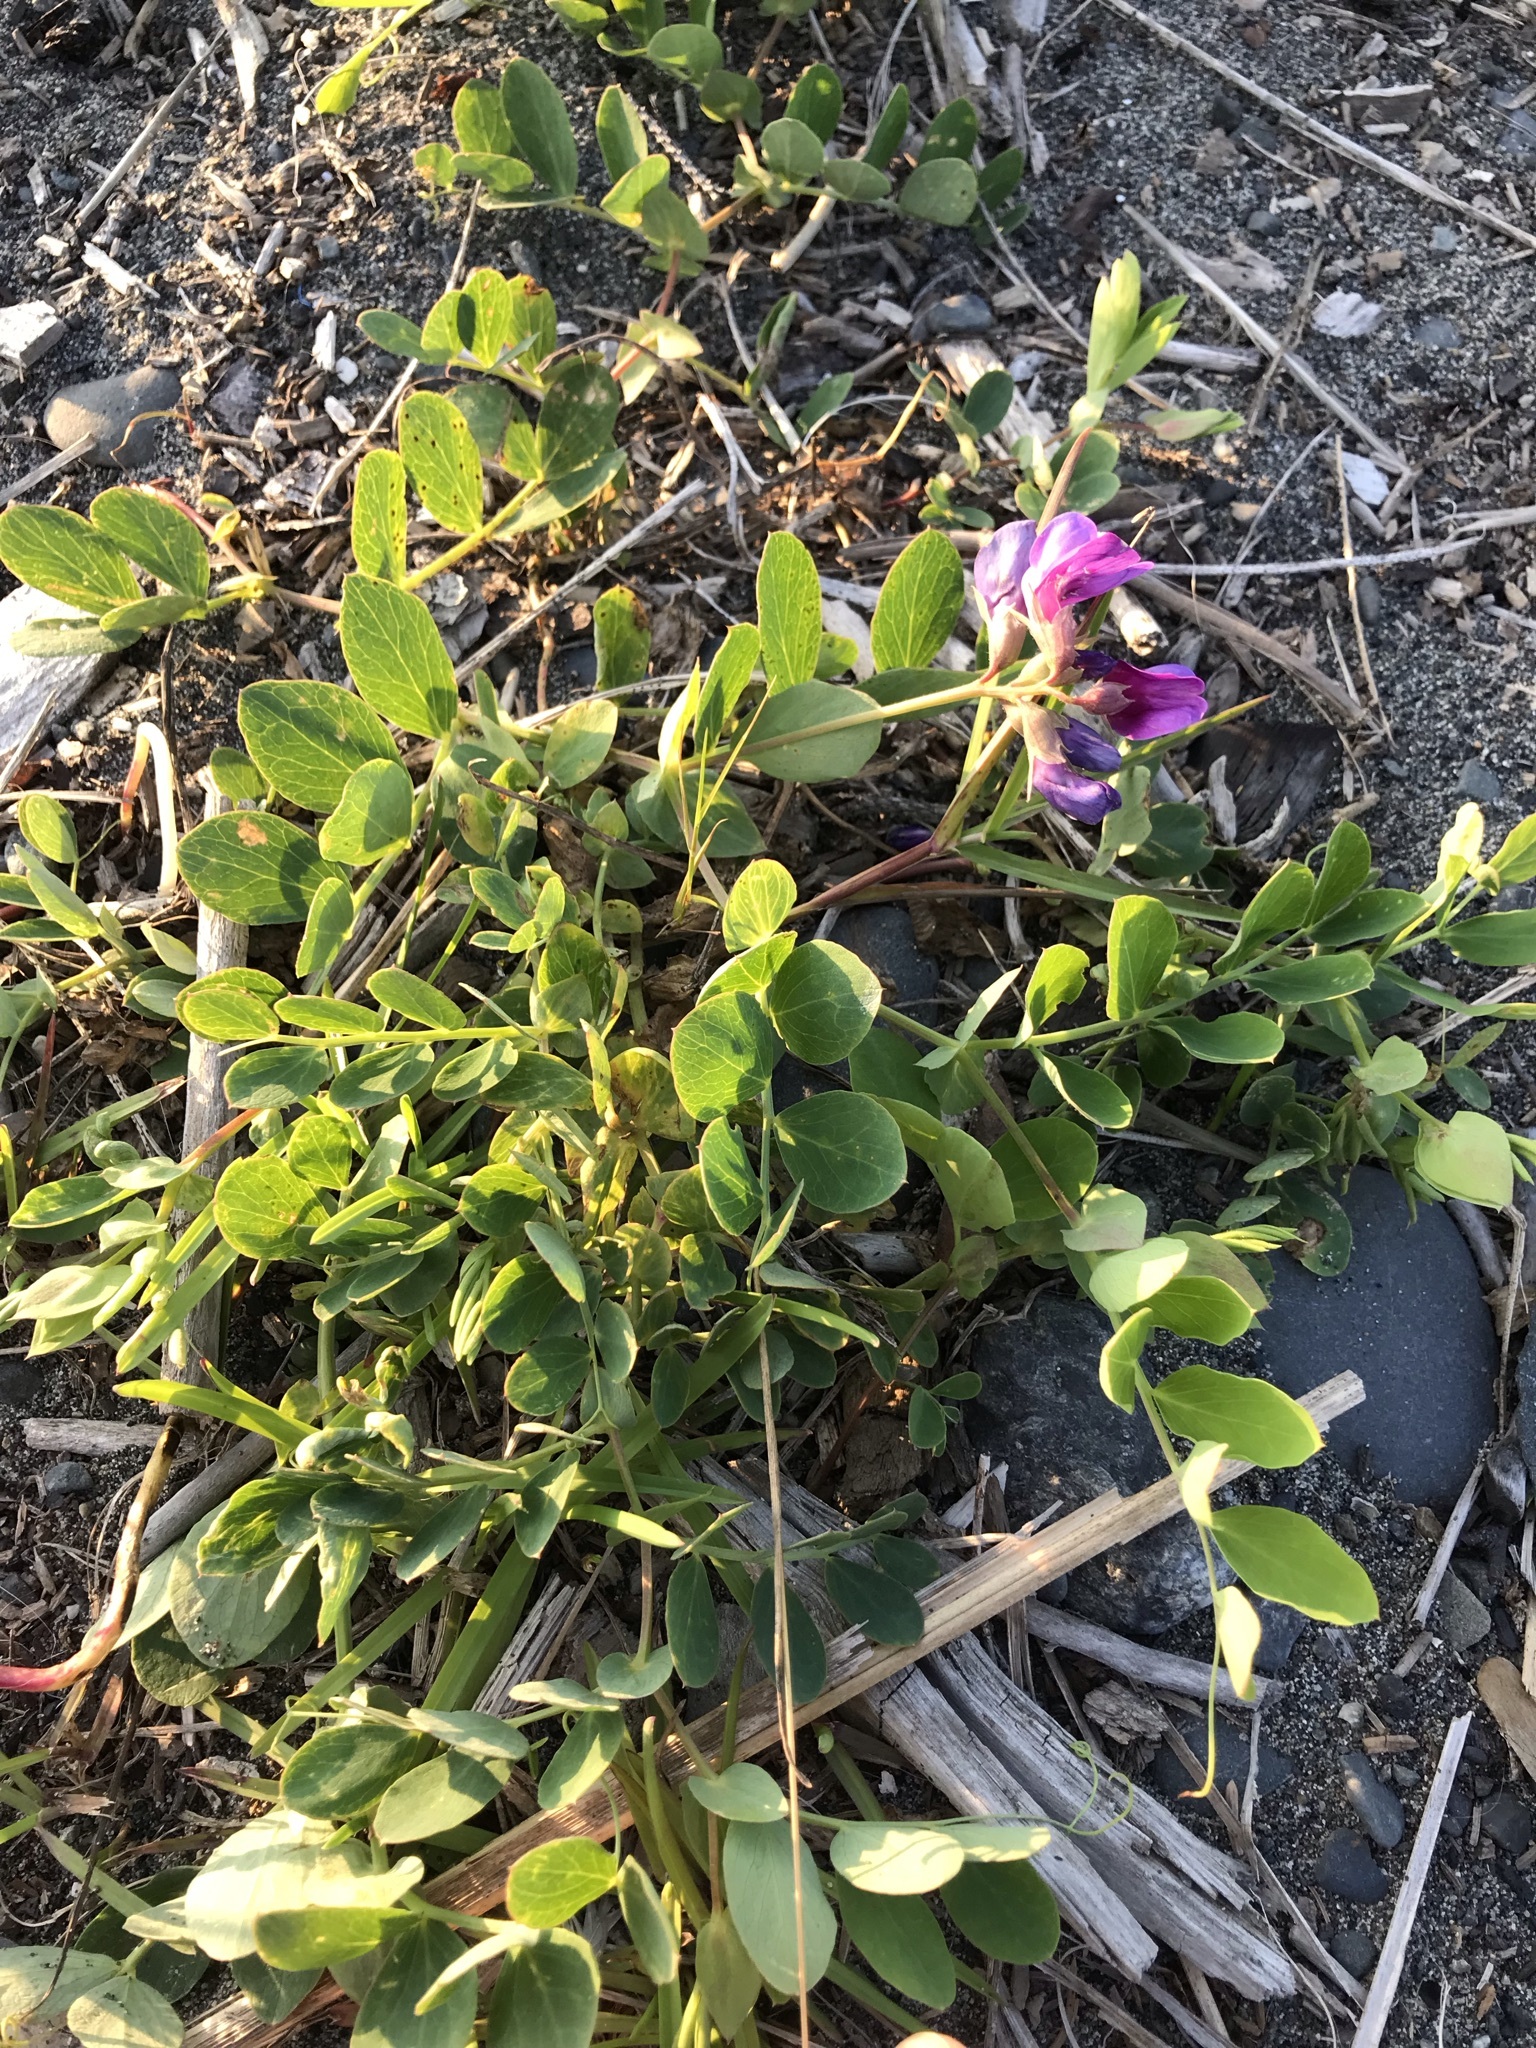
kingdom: Plantae
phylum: Tracheophyta
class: Magnoliopsida
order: Fabales
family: Fabaceae
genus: Lathyrus
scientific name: Lathyrus japonicus
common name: Sea pea
